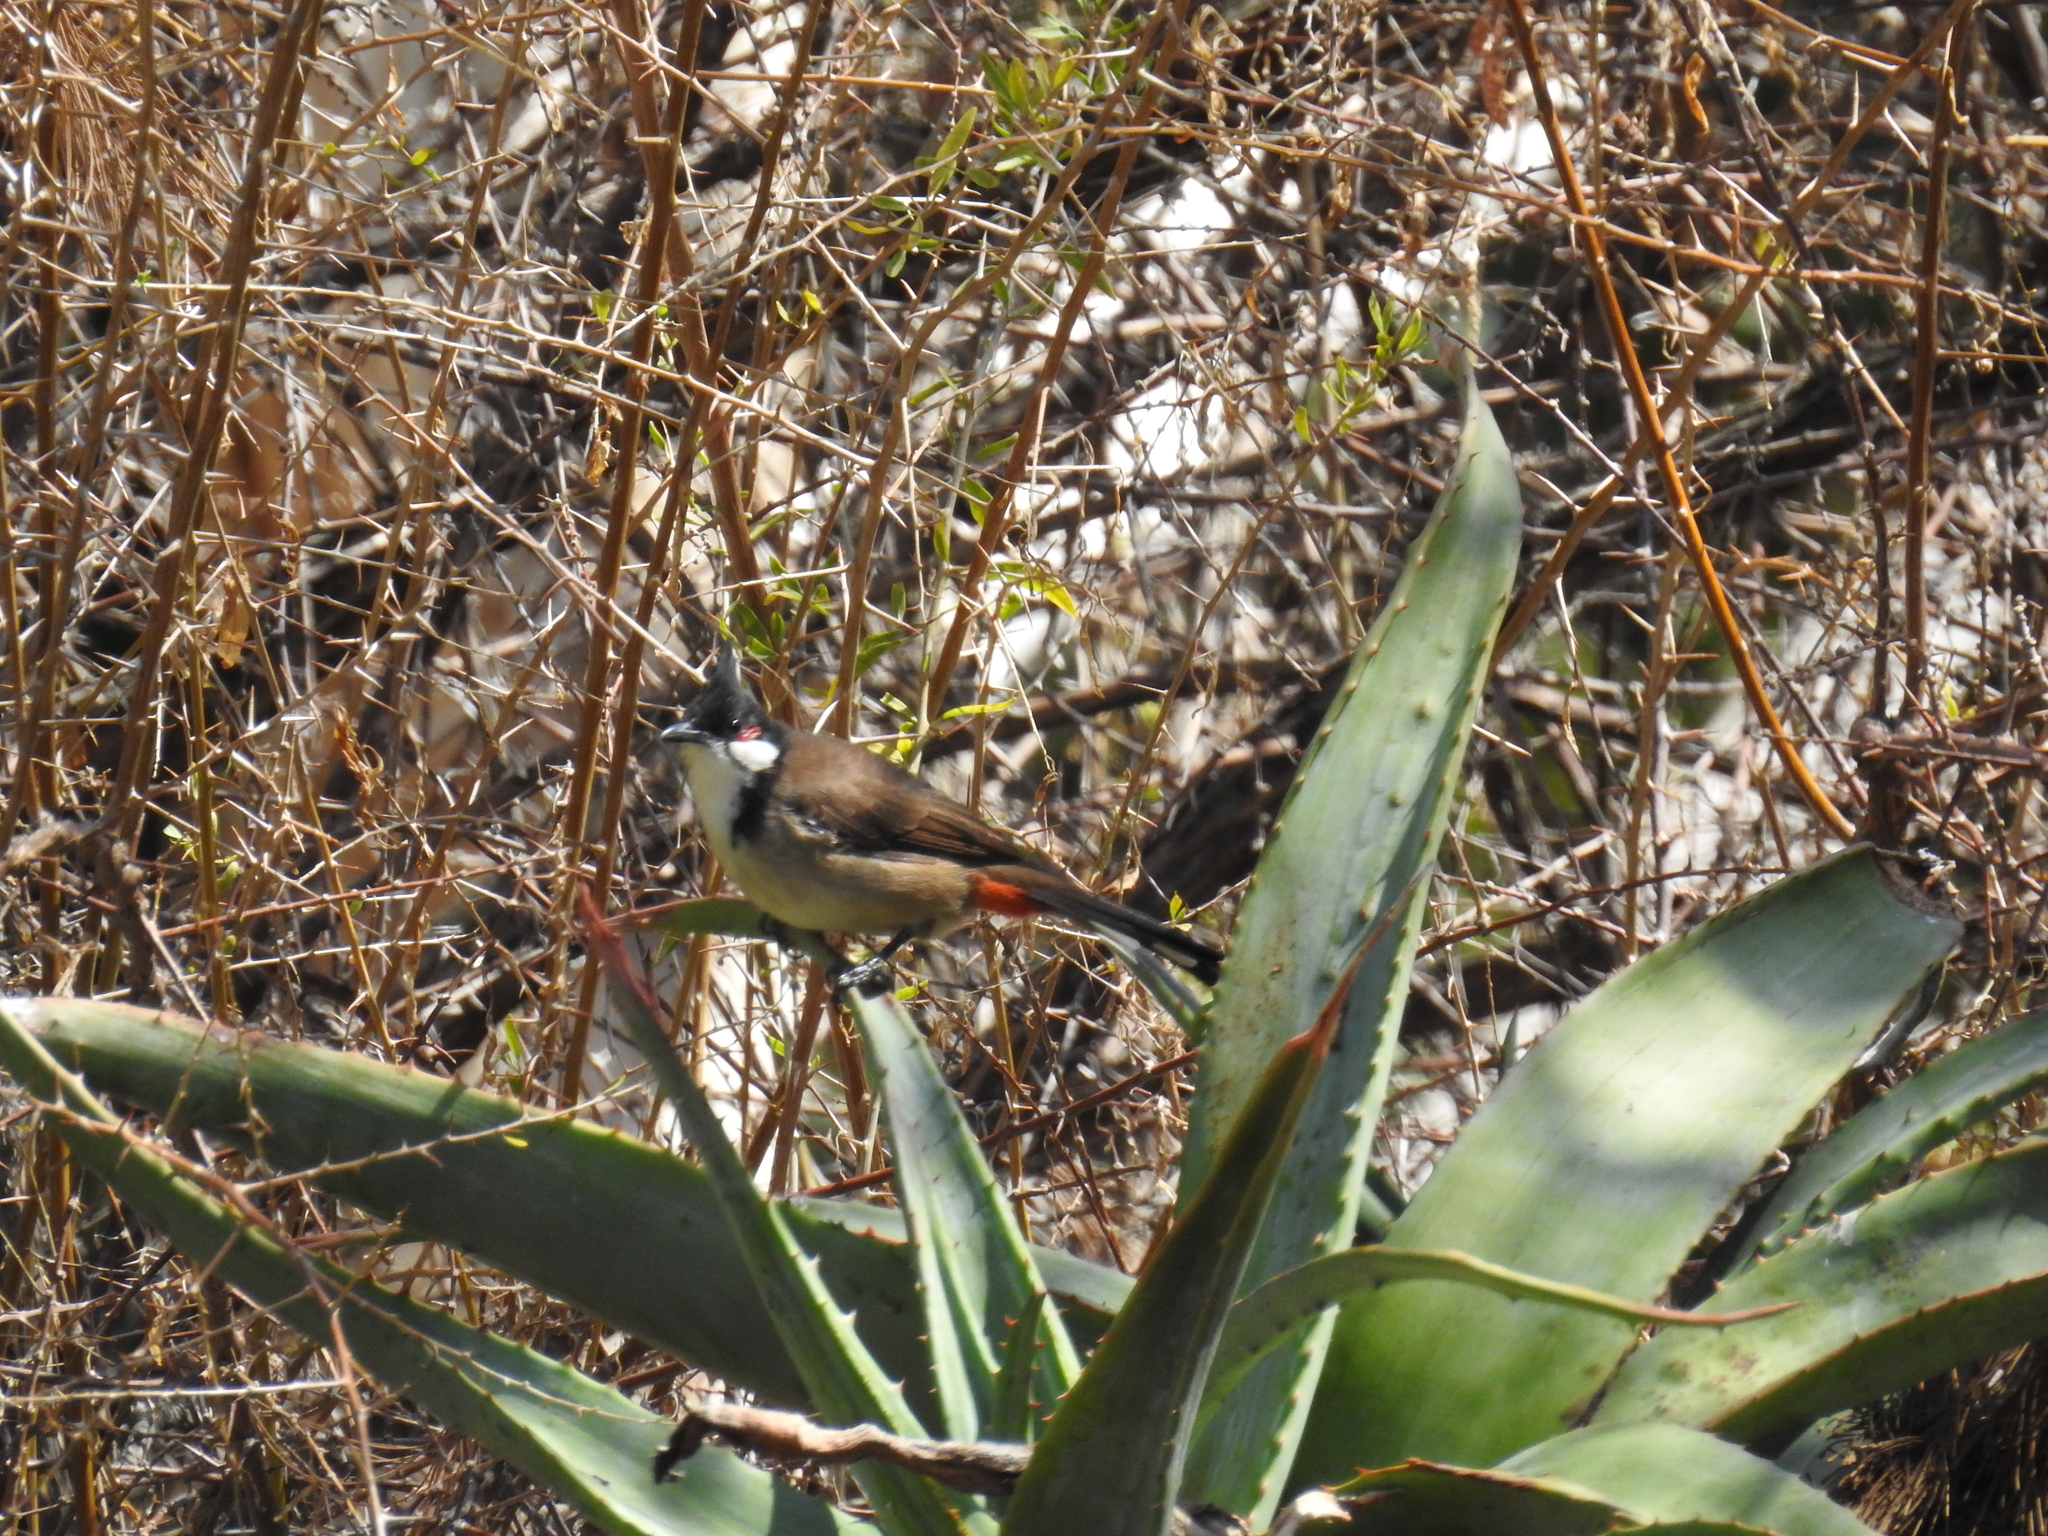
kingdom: Animalia
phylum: Chordata
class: Aves
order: Passeriformes
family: Pycnonotidae
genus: Pycnonotus
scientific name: Pycnonotus jocosus
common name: Red-whiskered bulbul
